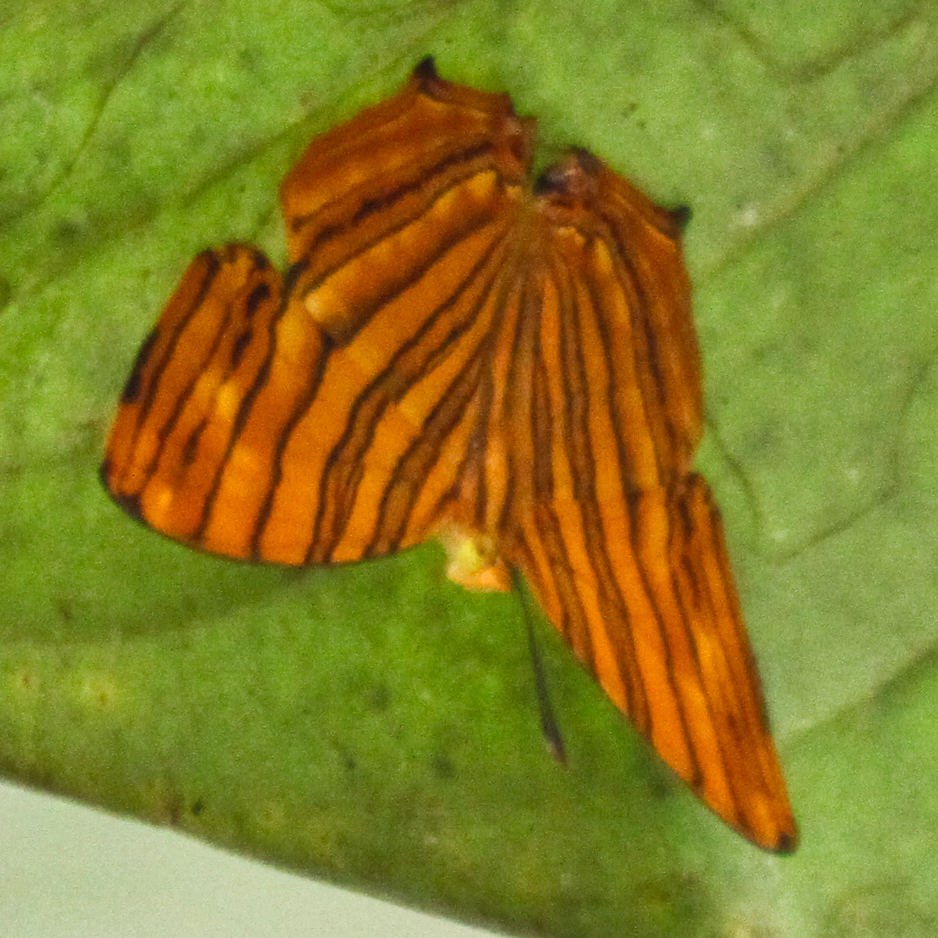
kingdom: Animalia
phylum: Arthropoda
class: Insecta
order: Lepidoptera
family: Nymphalidae
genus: Chersonesia
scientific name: Chersonesia risa
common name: Common maplet
